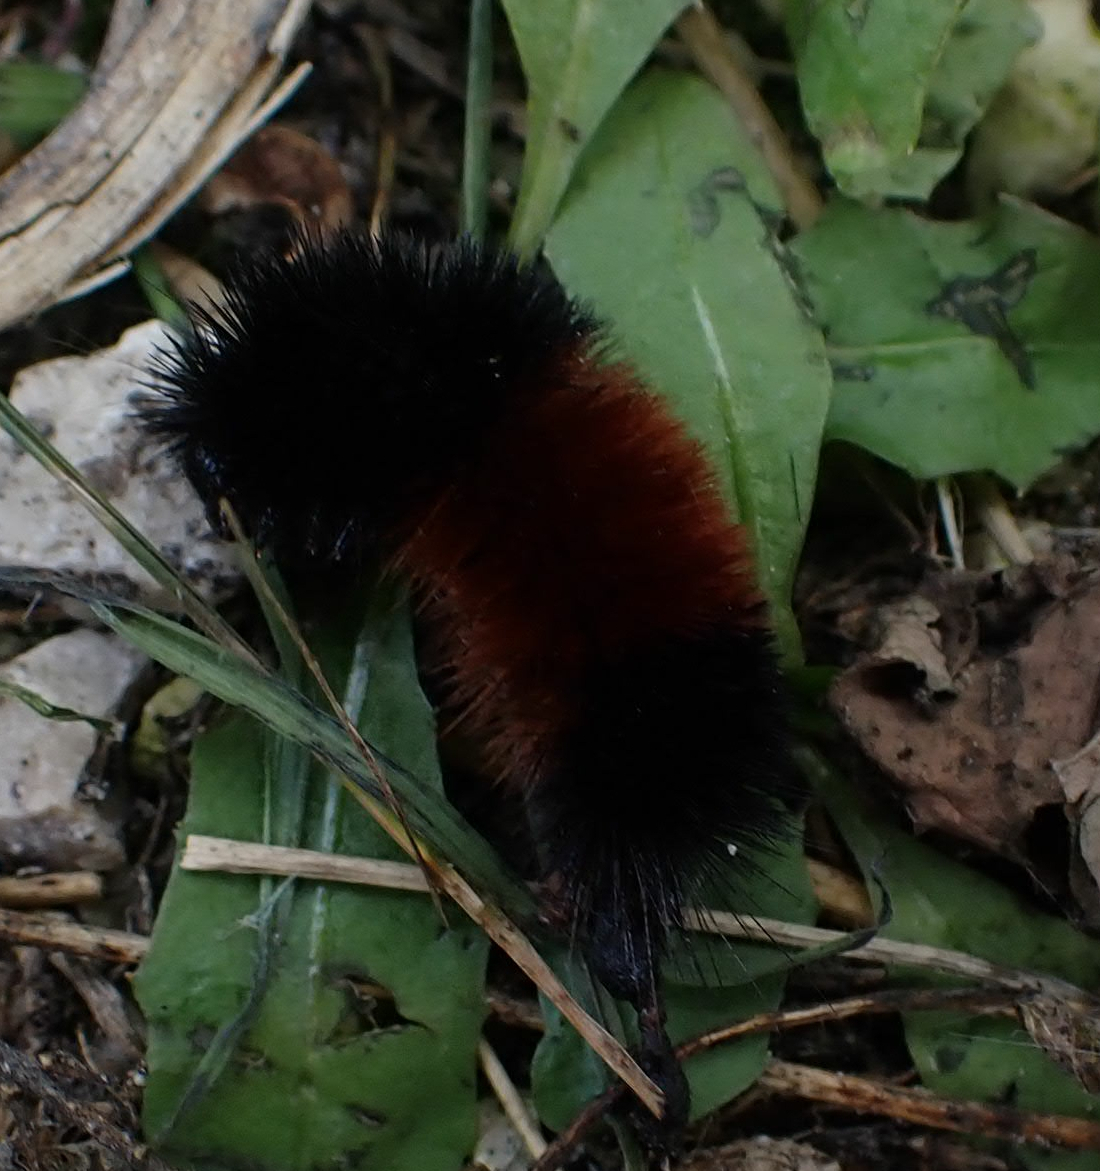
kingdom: Animalia
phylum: Arthropoda
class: Insecta
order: Lepidoptera
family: Erebidae
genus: Pyrrharctia
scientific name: Pyrrharctia isabella
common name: Isabella tiger moth
